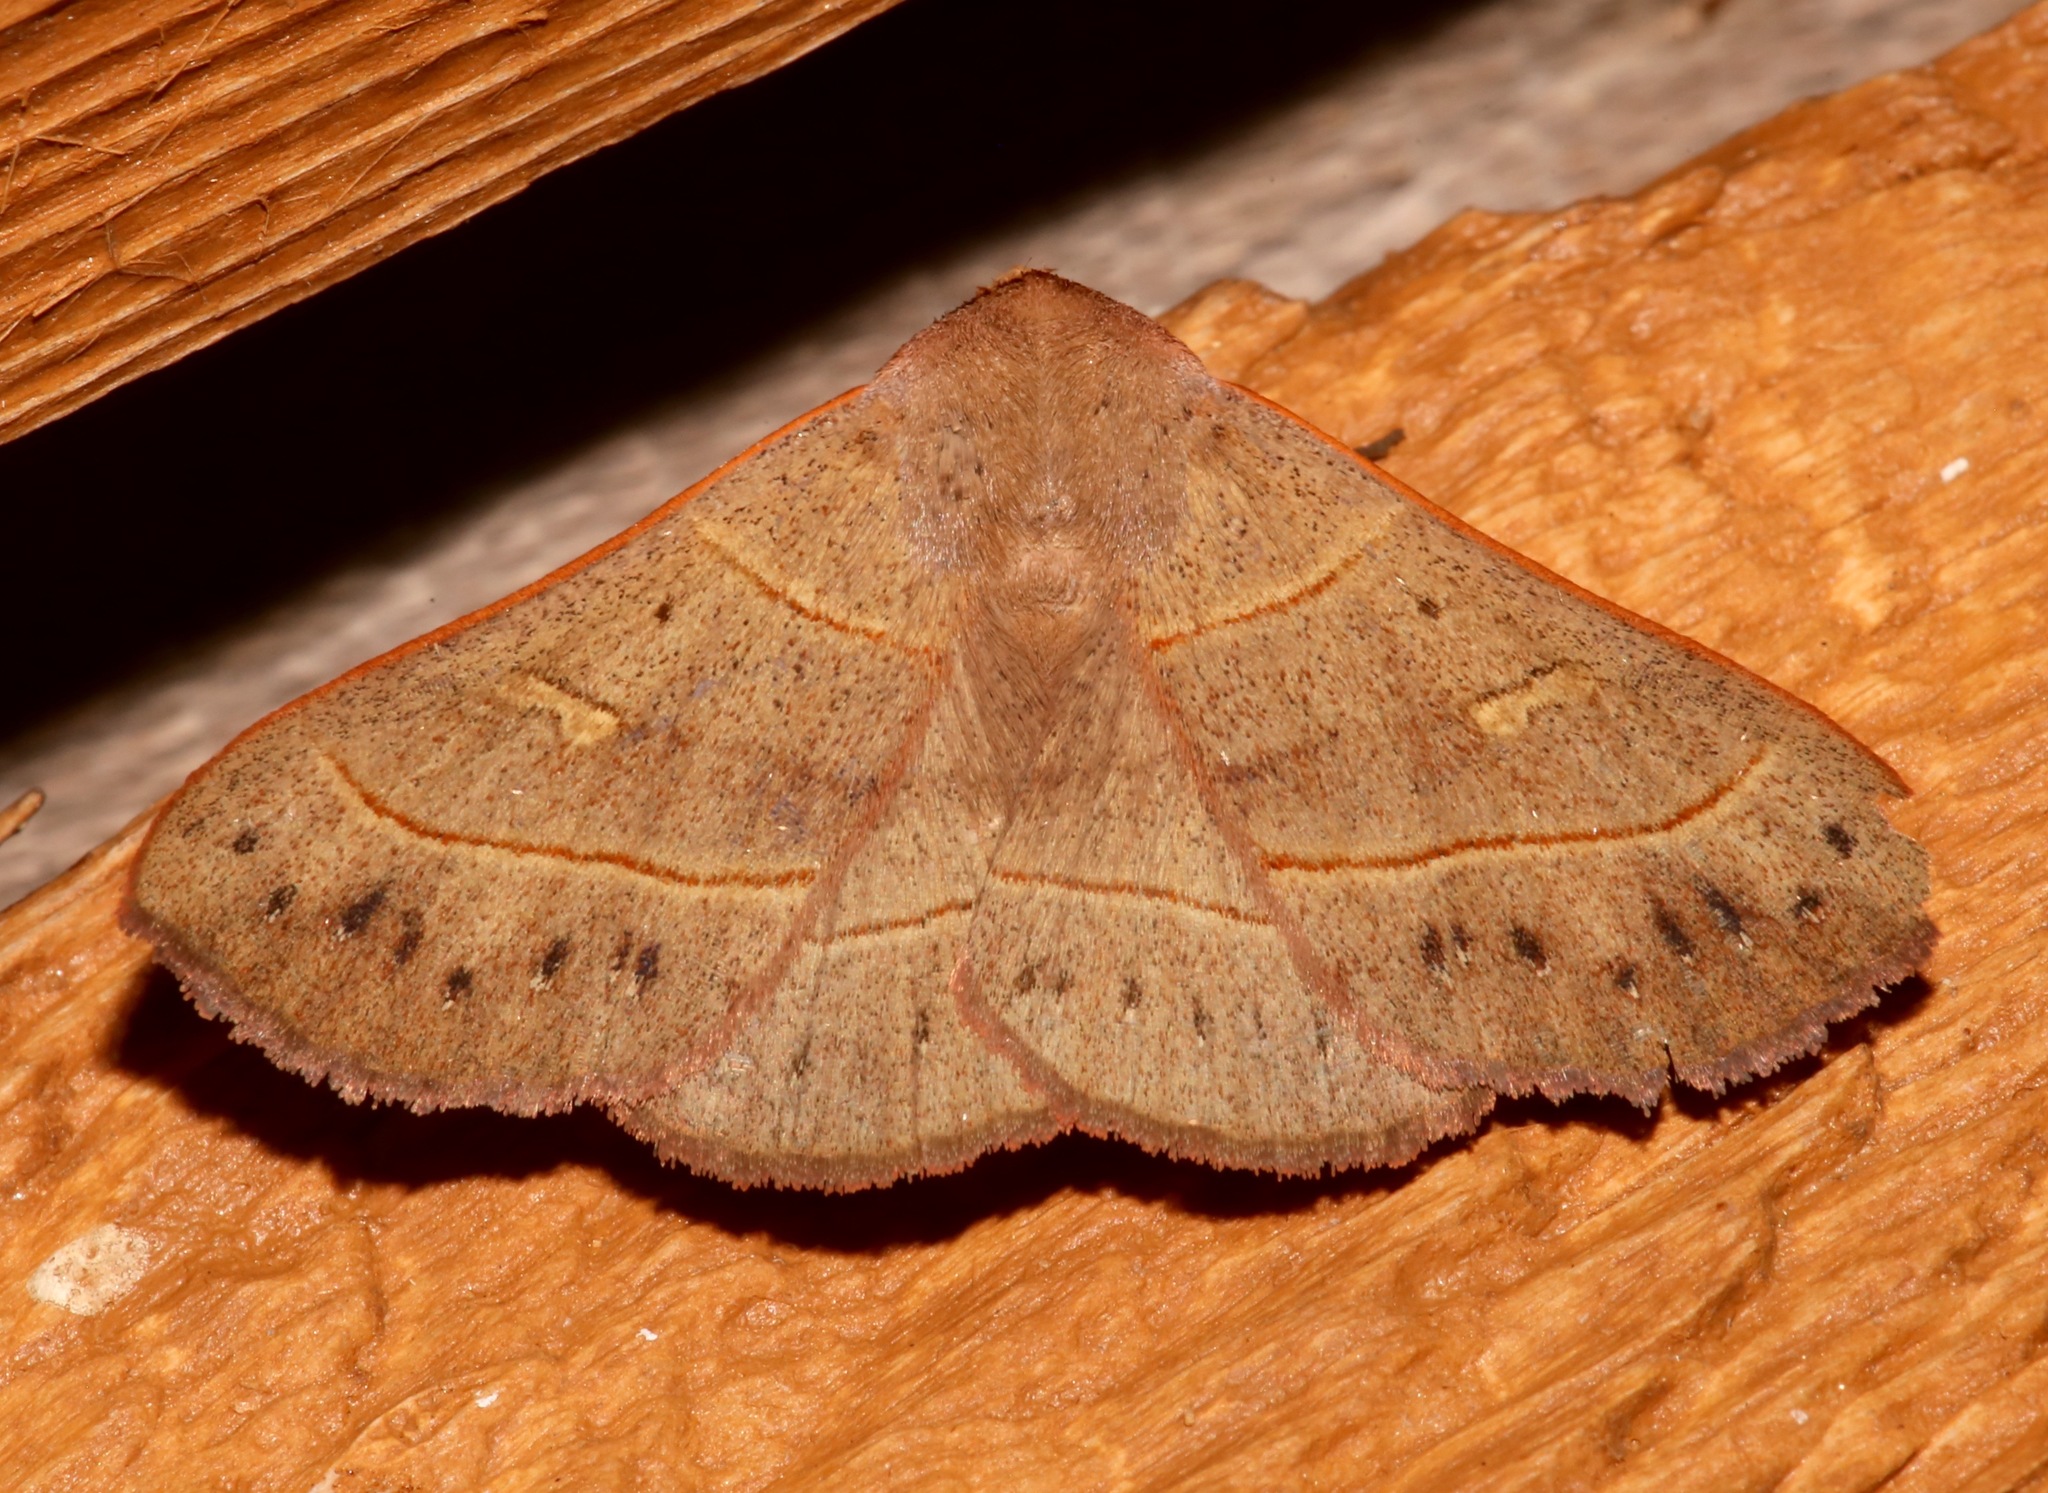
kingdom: Animalia
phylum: Arthropoda
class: Insecta
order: Lepidoptera
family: Erebidae
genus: Panopoda
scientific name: Panopoda rufimargo
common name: Red-lined panopoda moth
